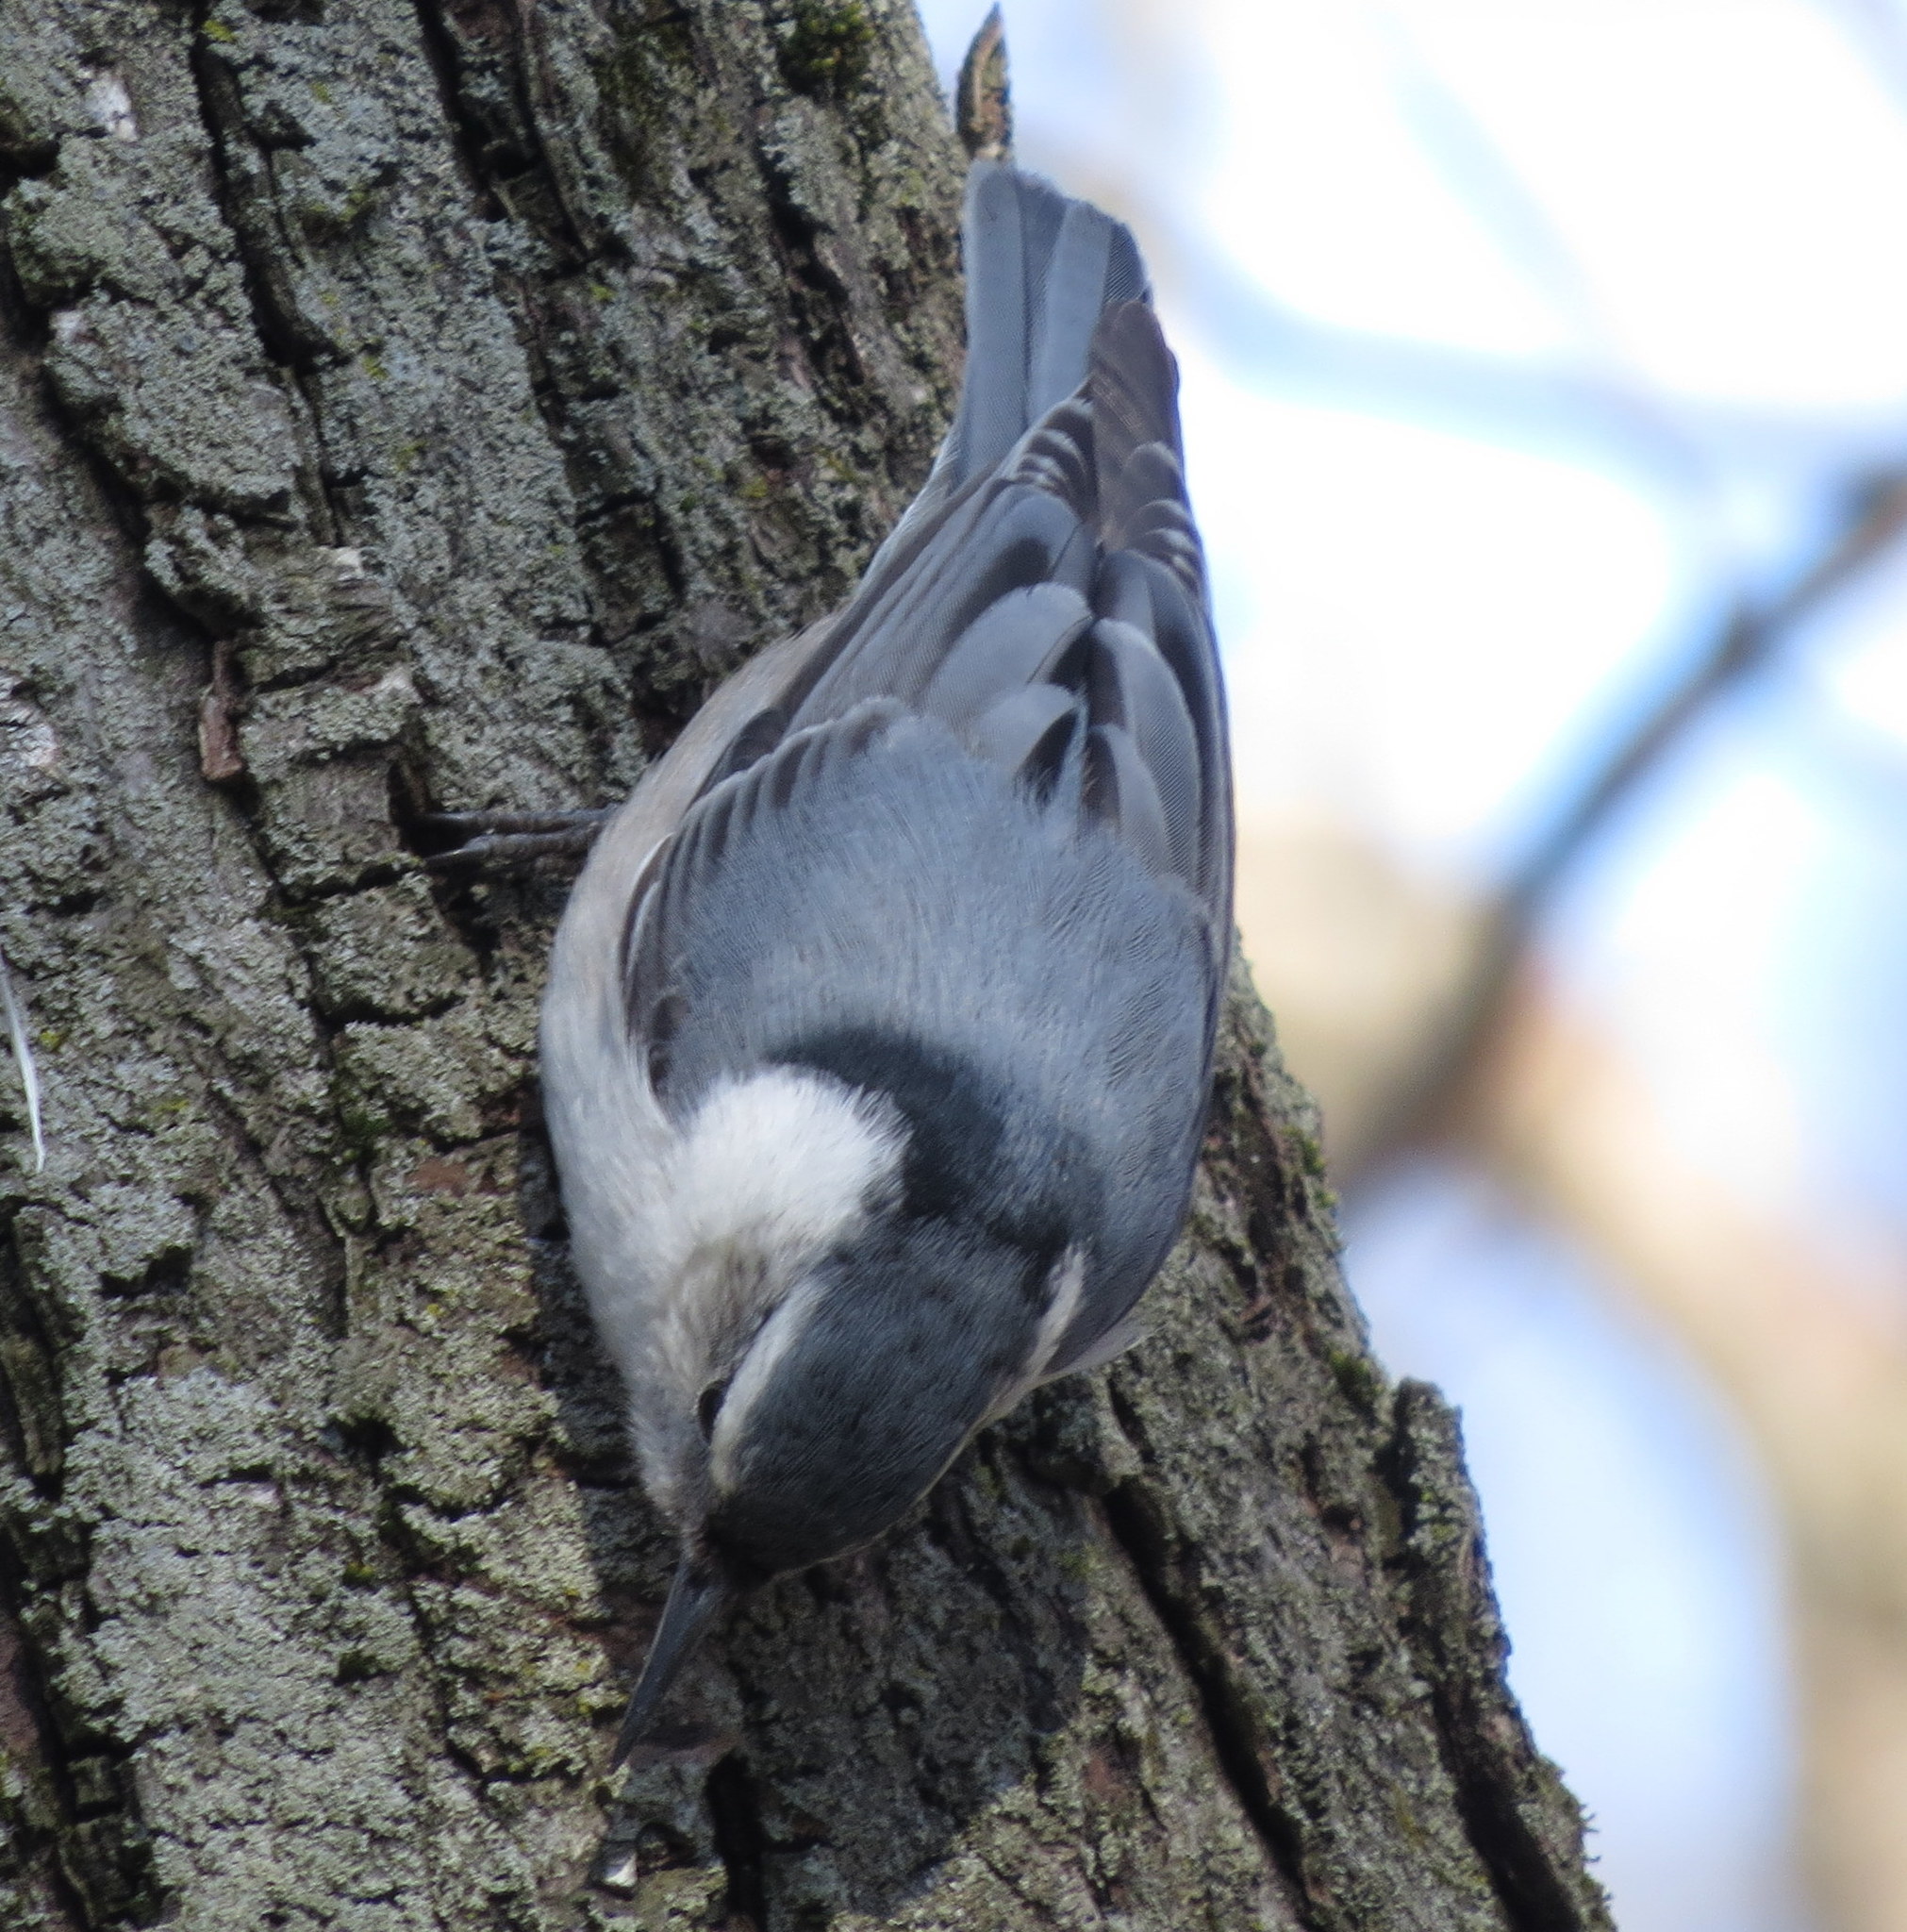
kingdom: Animalia
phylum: Chordata
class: Aves
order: Passeriformes
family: Sittidae
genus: Sitta
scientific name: Sitta carolinensis
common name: White-breasted nuthatch
